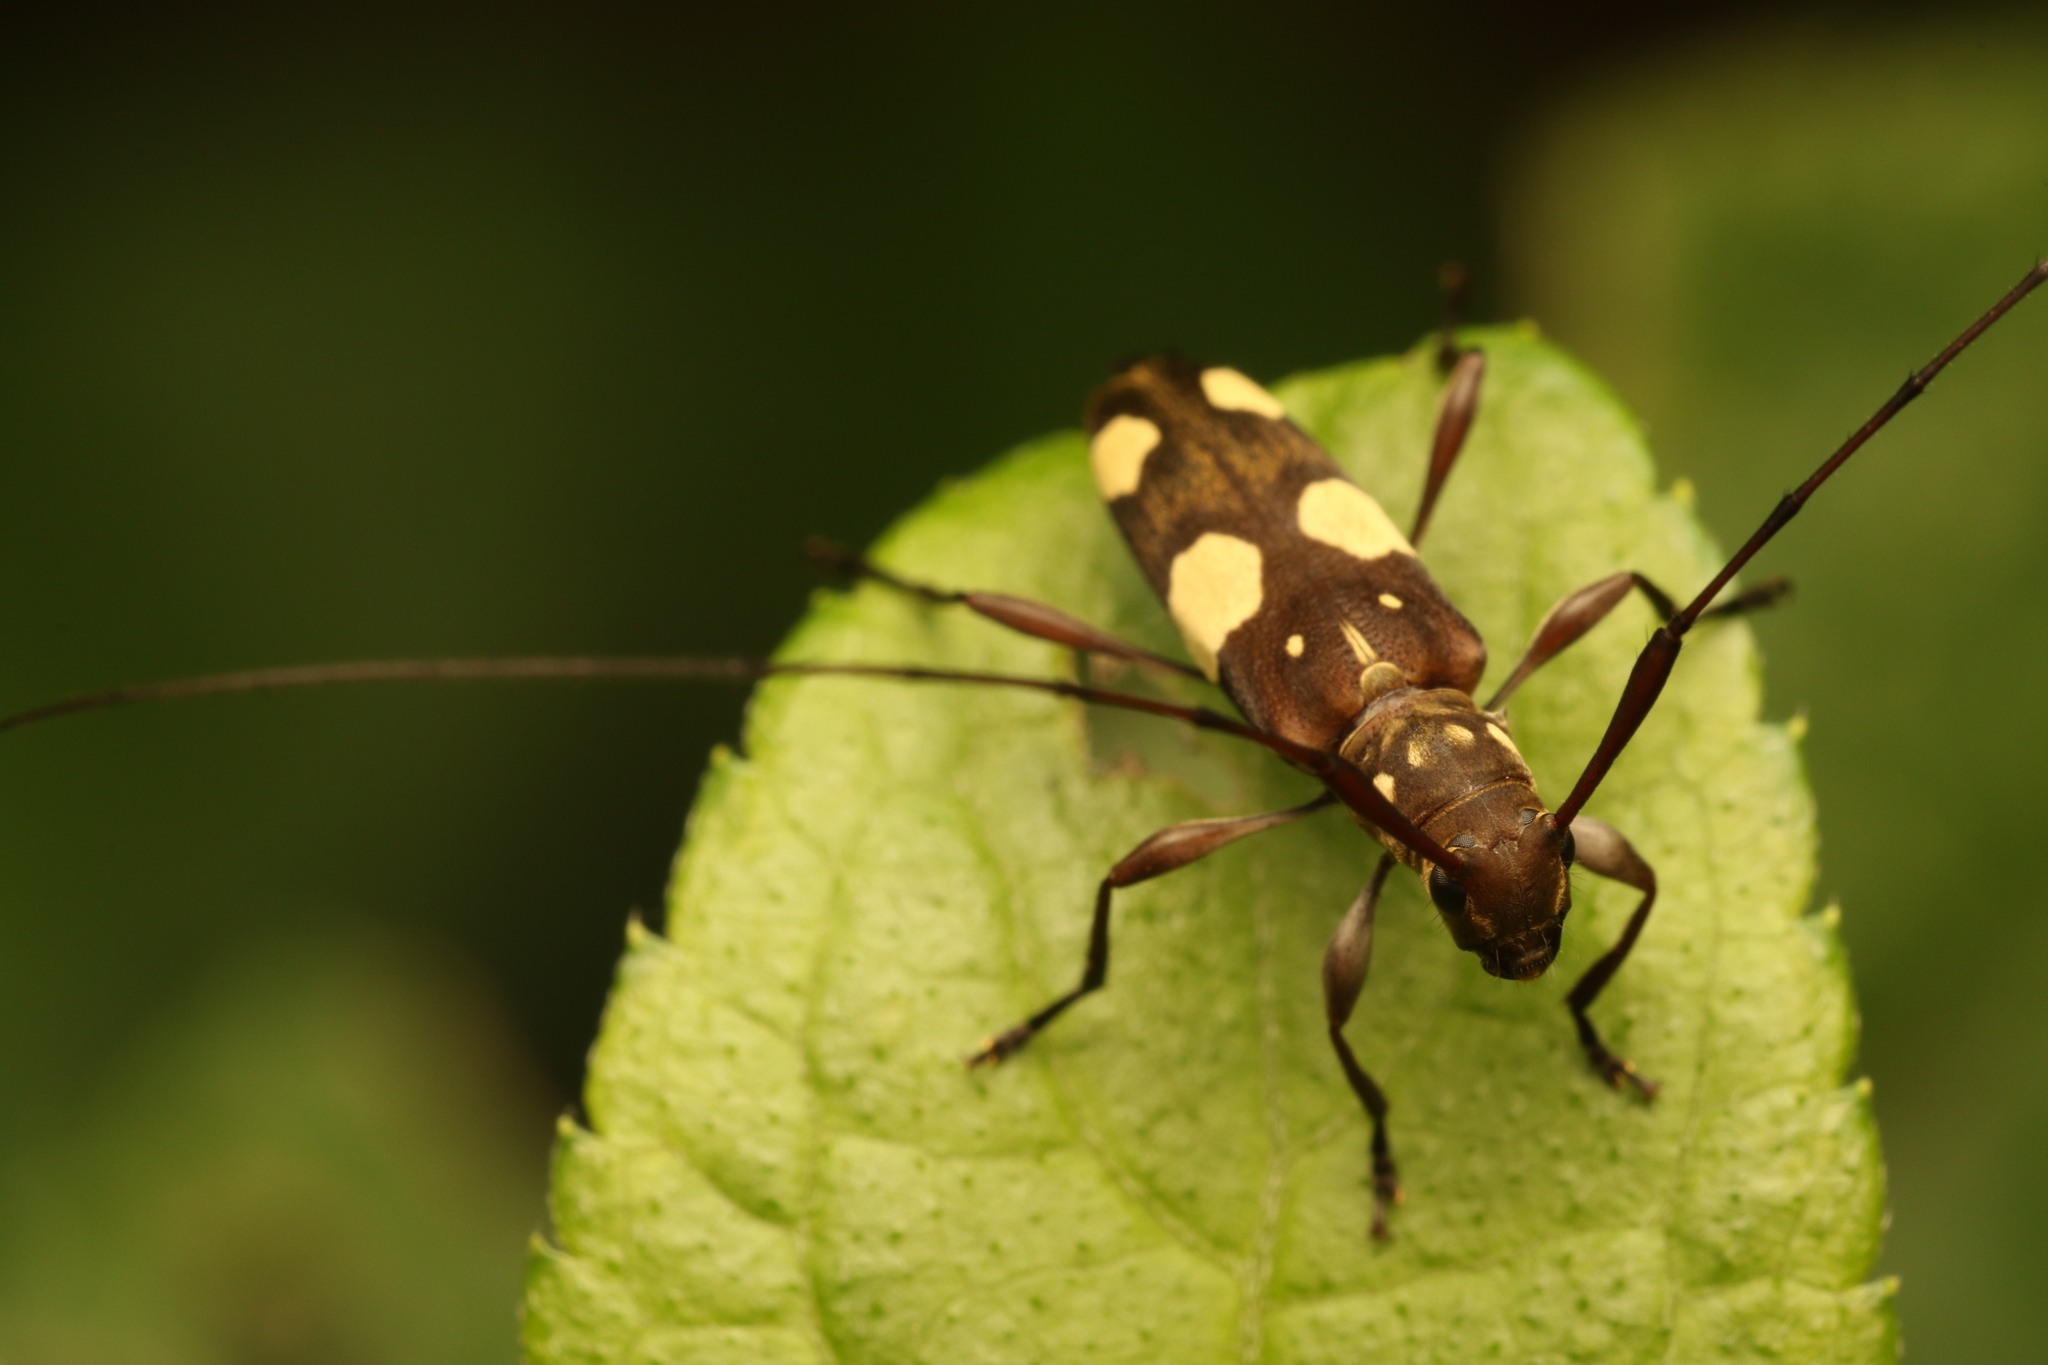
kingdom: Animalia
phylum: Arthropoda
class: Insecta
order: Coleoptera
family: Cerambycidae
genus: Probatiomimus
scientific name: Probatiomimus schwarzeri
